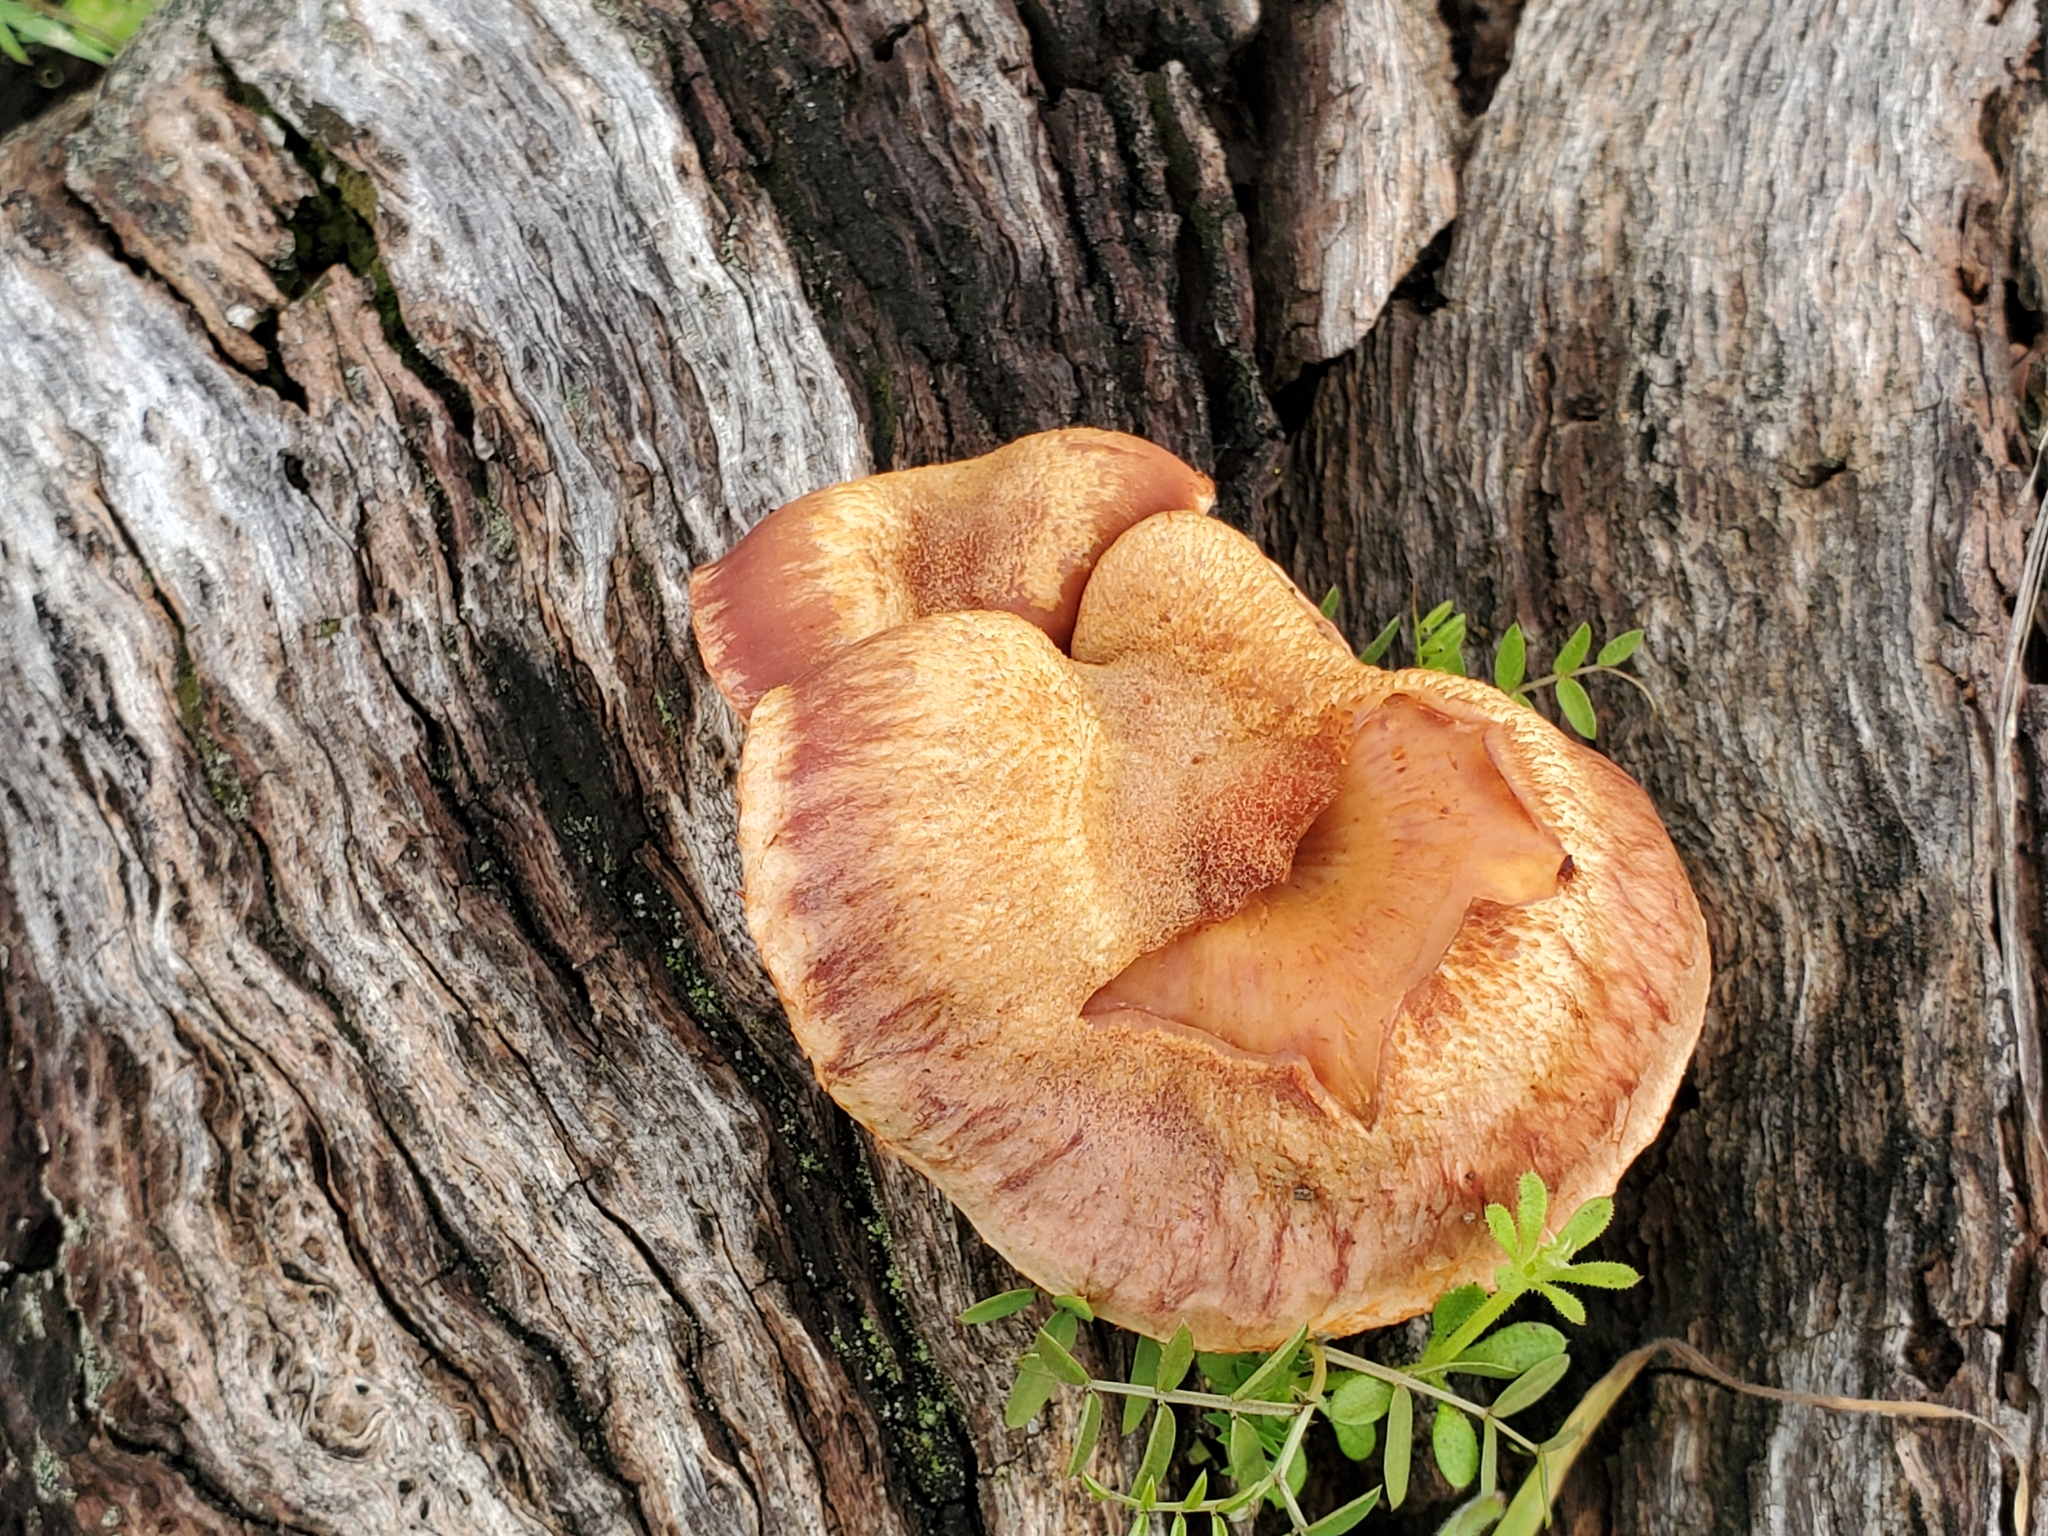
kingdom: Fungi
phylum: Basidiomycota
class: Agaricomycetes
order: Agaricales
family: Hymenogastraceae
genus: Gymnopilus
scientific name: Gymnopilus luteofolius
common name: Yellow-gilled gymnopilus
